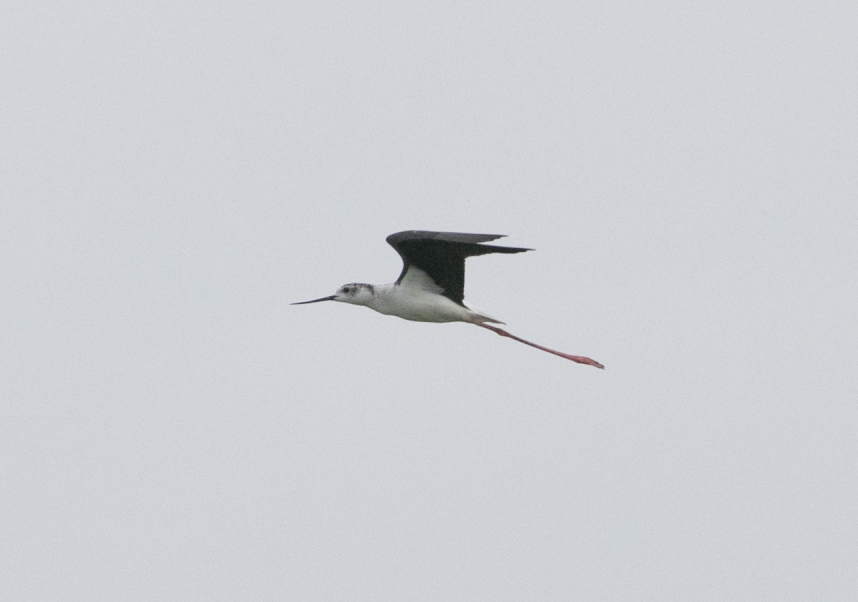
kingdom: Animalia
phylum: Chordata
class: Aves
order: Charadriiformes
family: Recurvirostridae
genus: Himantopus
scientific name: Himantopus himantopus
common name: Black-winged stilt
